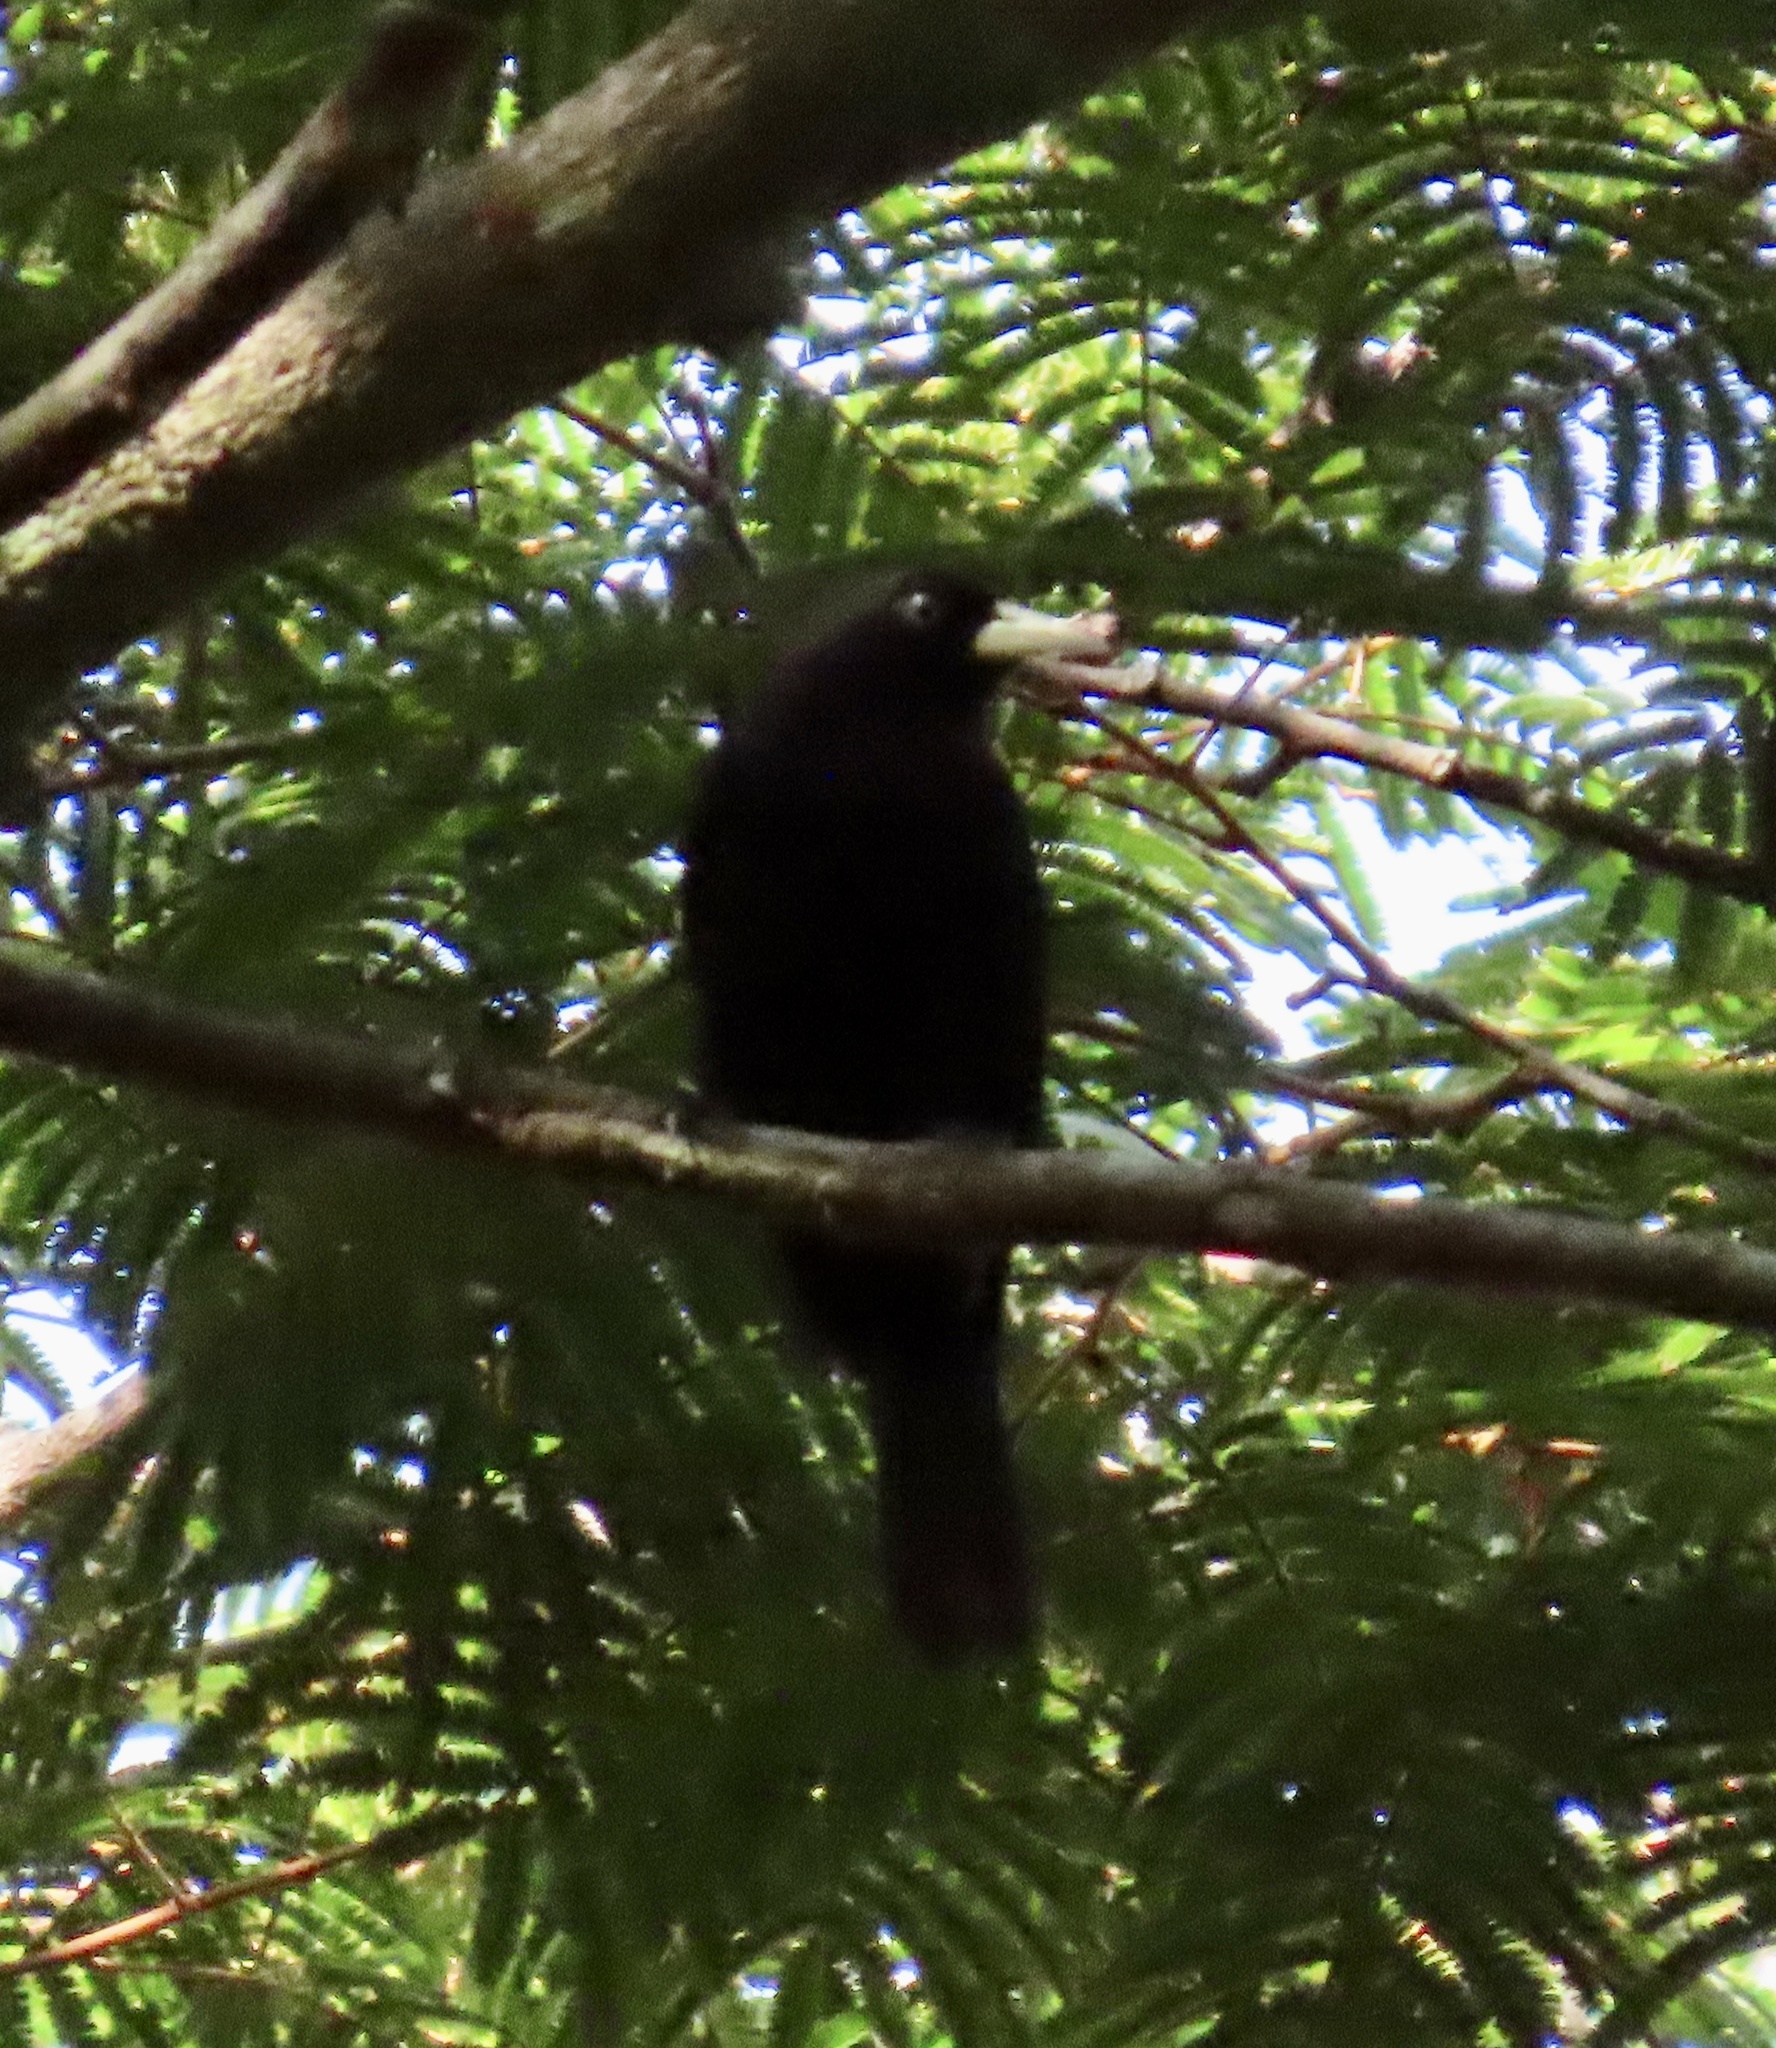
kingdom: Animalia
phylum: Chordata
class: Aves
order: Passeriformes
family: Icteridae
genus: Amblycercus
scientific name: Amblycercus holosericeus
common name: Yellow-billed cacique
